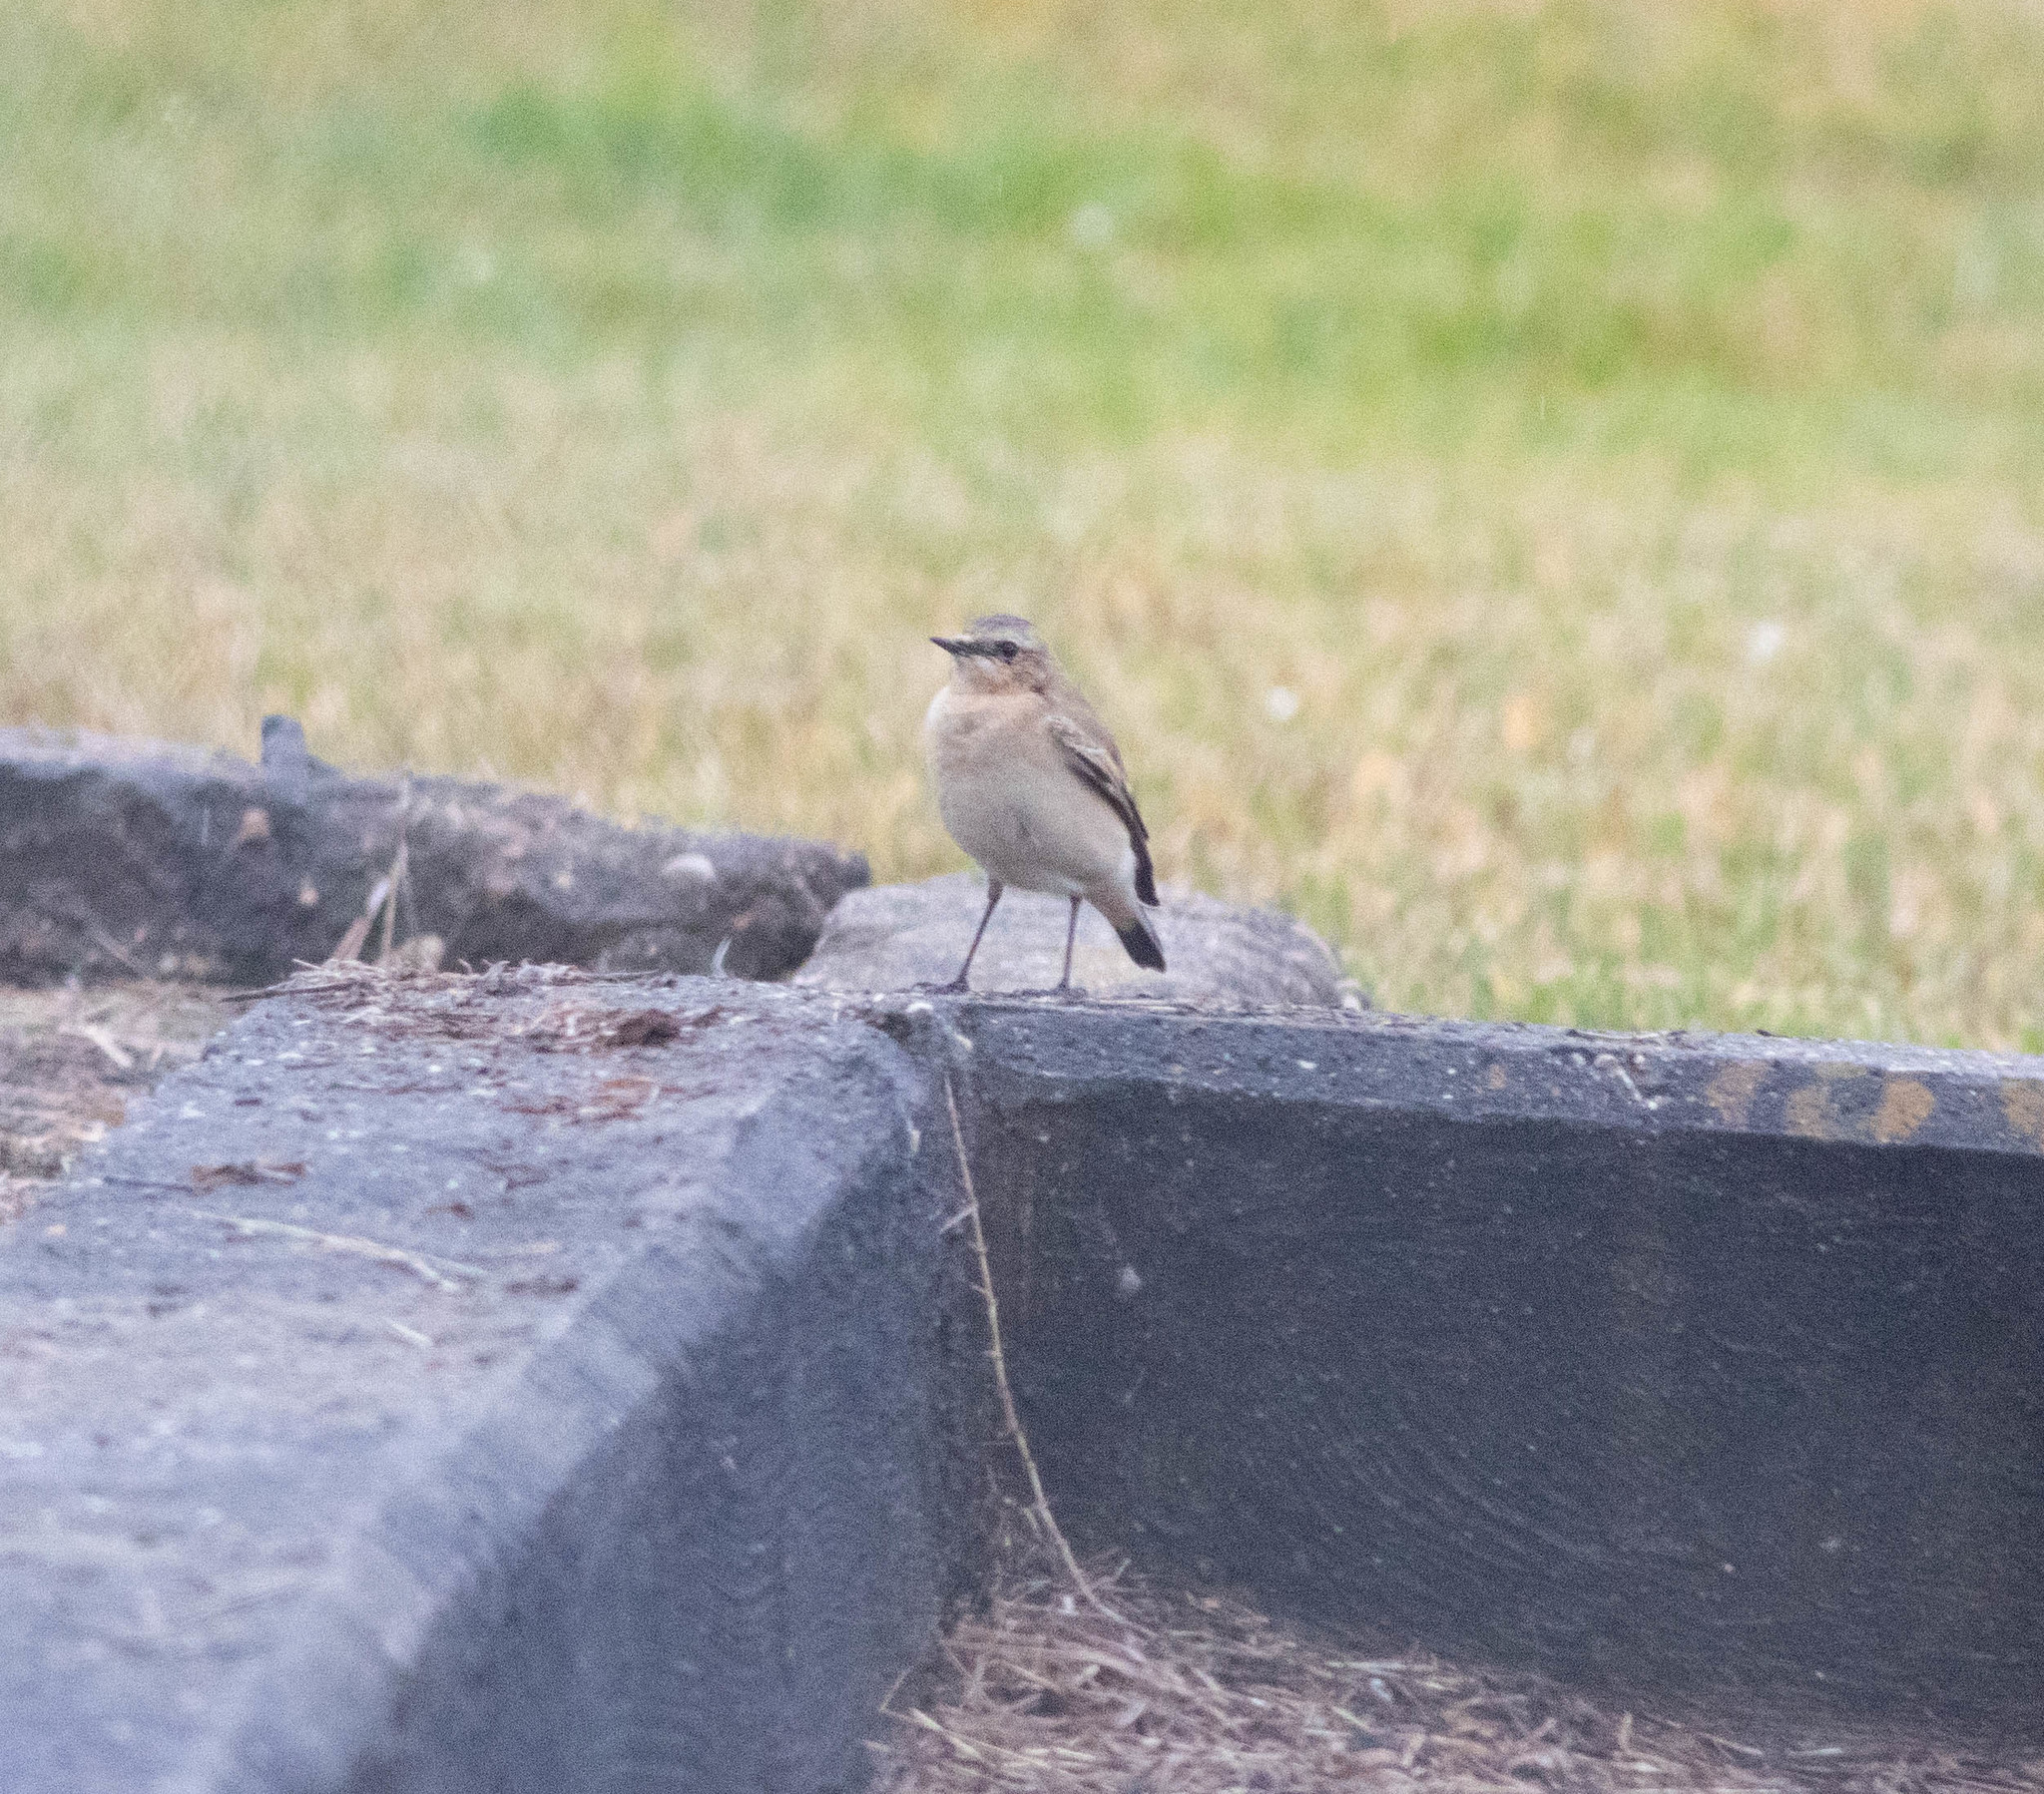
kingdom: Animalia
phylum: Chordata
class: Aves
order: Passeriformes
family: Muscicapidae
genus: Oenanthe
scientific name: Oenanthe oenanthe
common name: Northern wheatear
